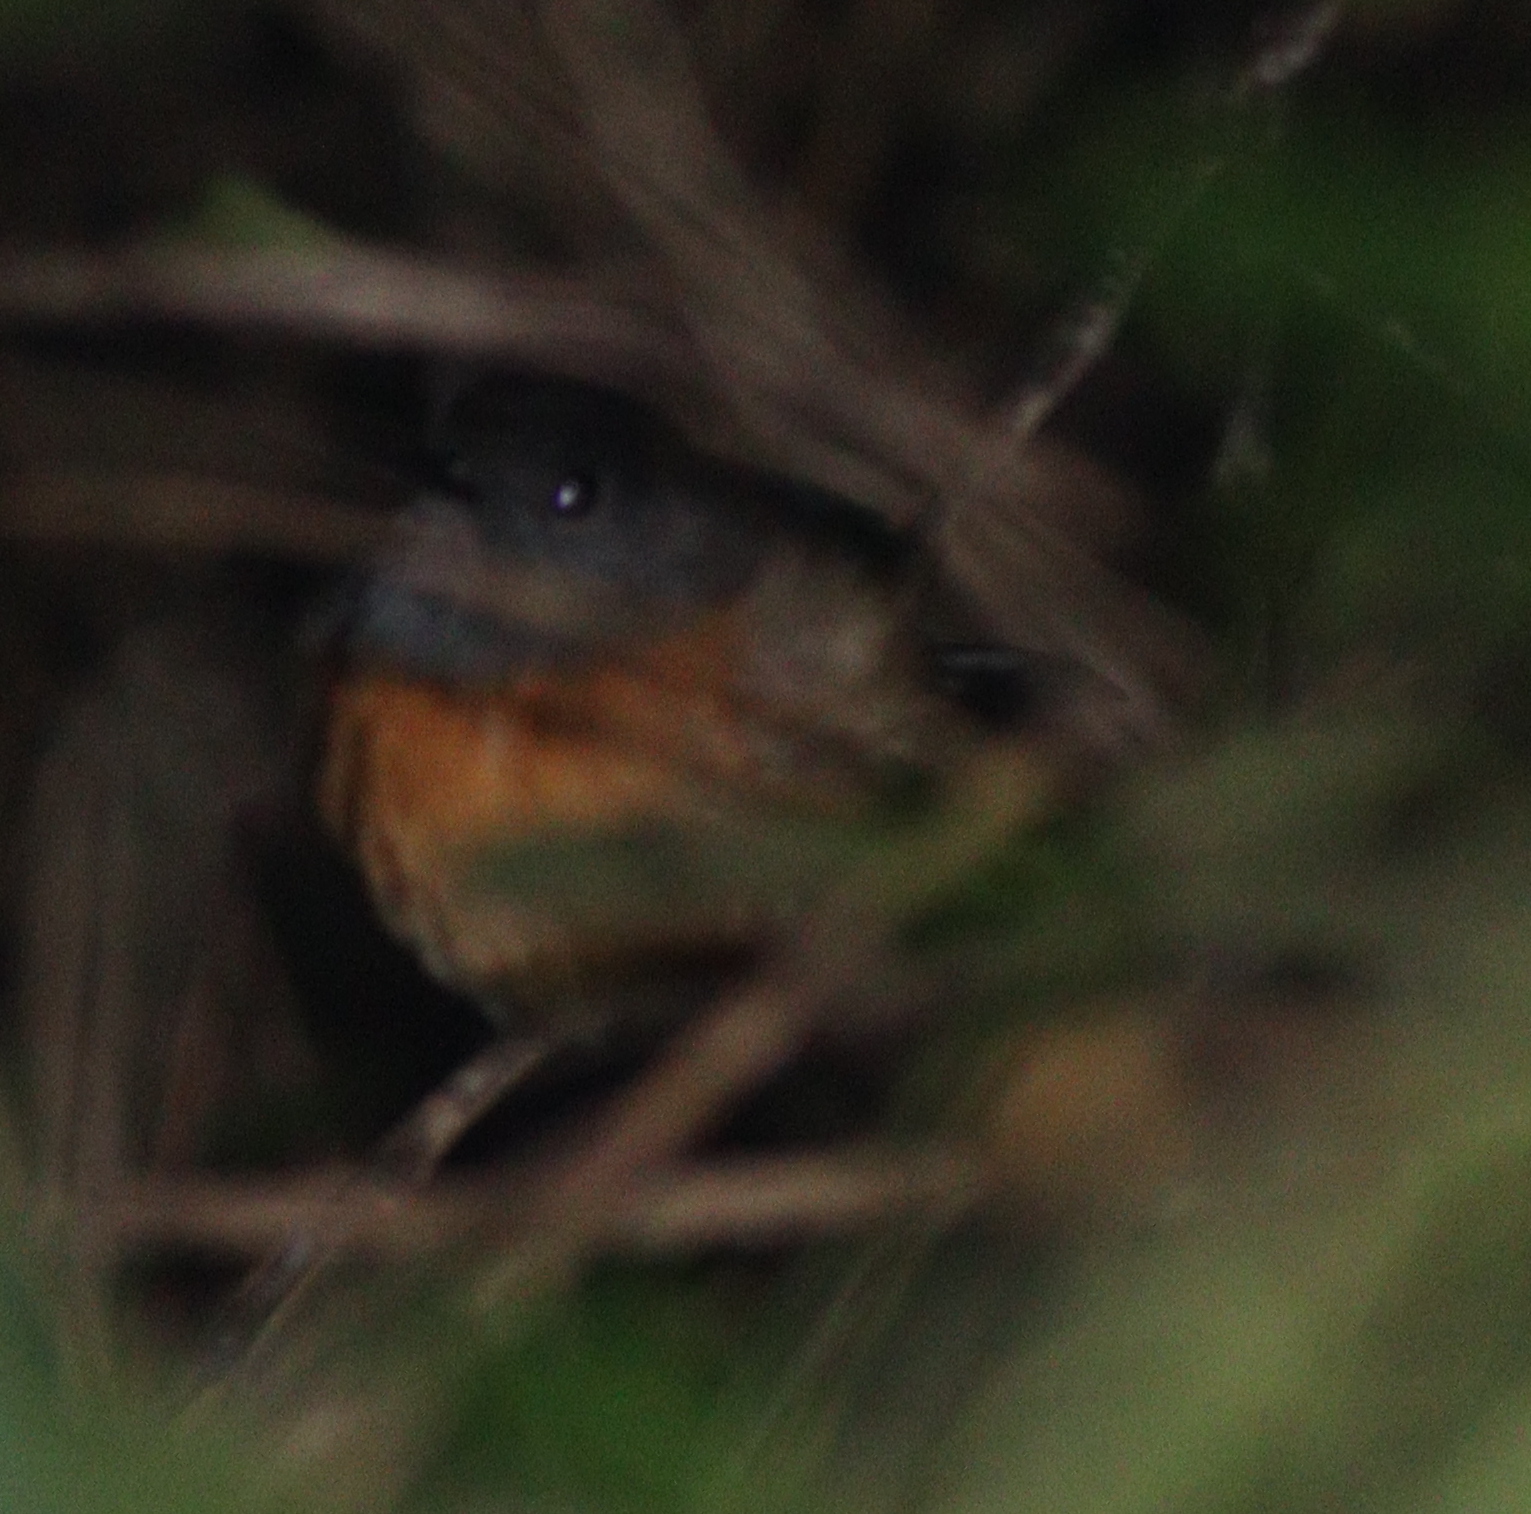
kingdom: Animalia
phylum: Chordata
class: Aves
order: Passeriformes
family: Muscicapidae
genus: Copsychus
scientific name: Copsychus malabaricus
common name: White-rumped shama
